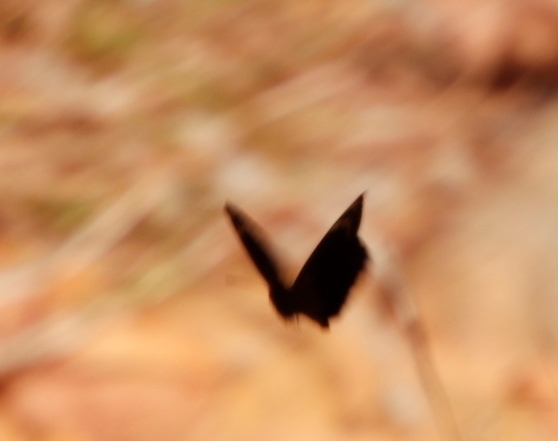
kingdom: Animalia
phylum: Arthropoda
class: Insecta
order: Lepidoptera
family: Nymphalidae
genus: Dira
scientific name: Dira clytus
